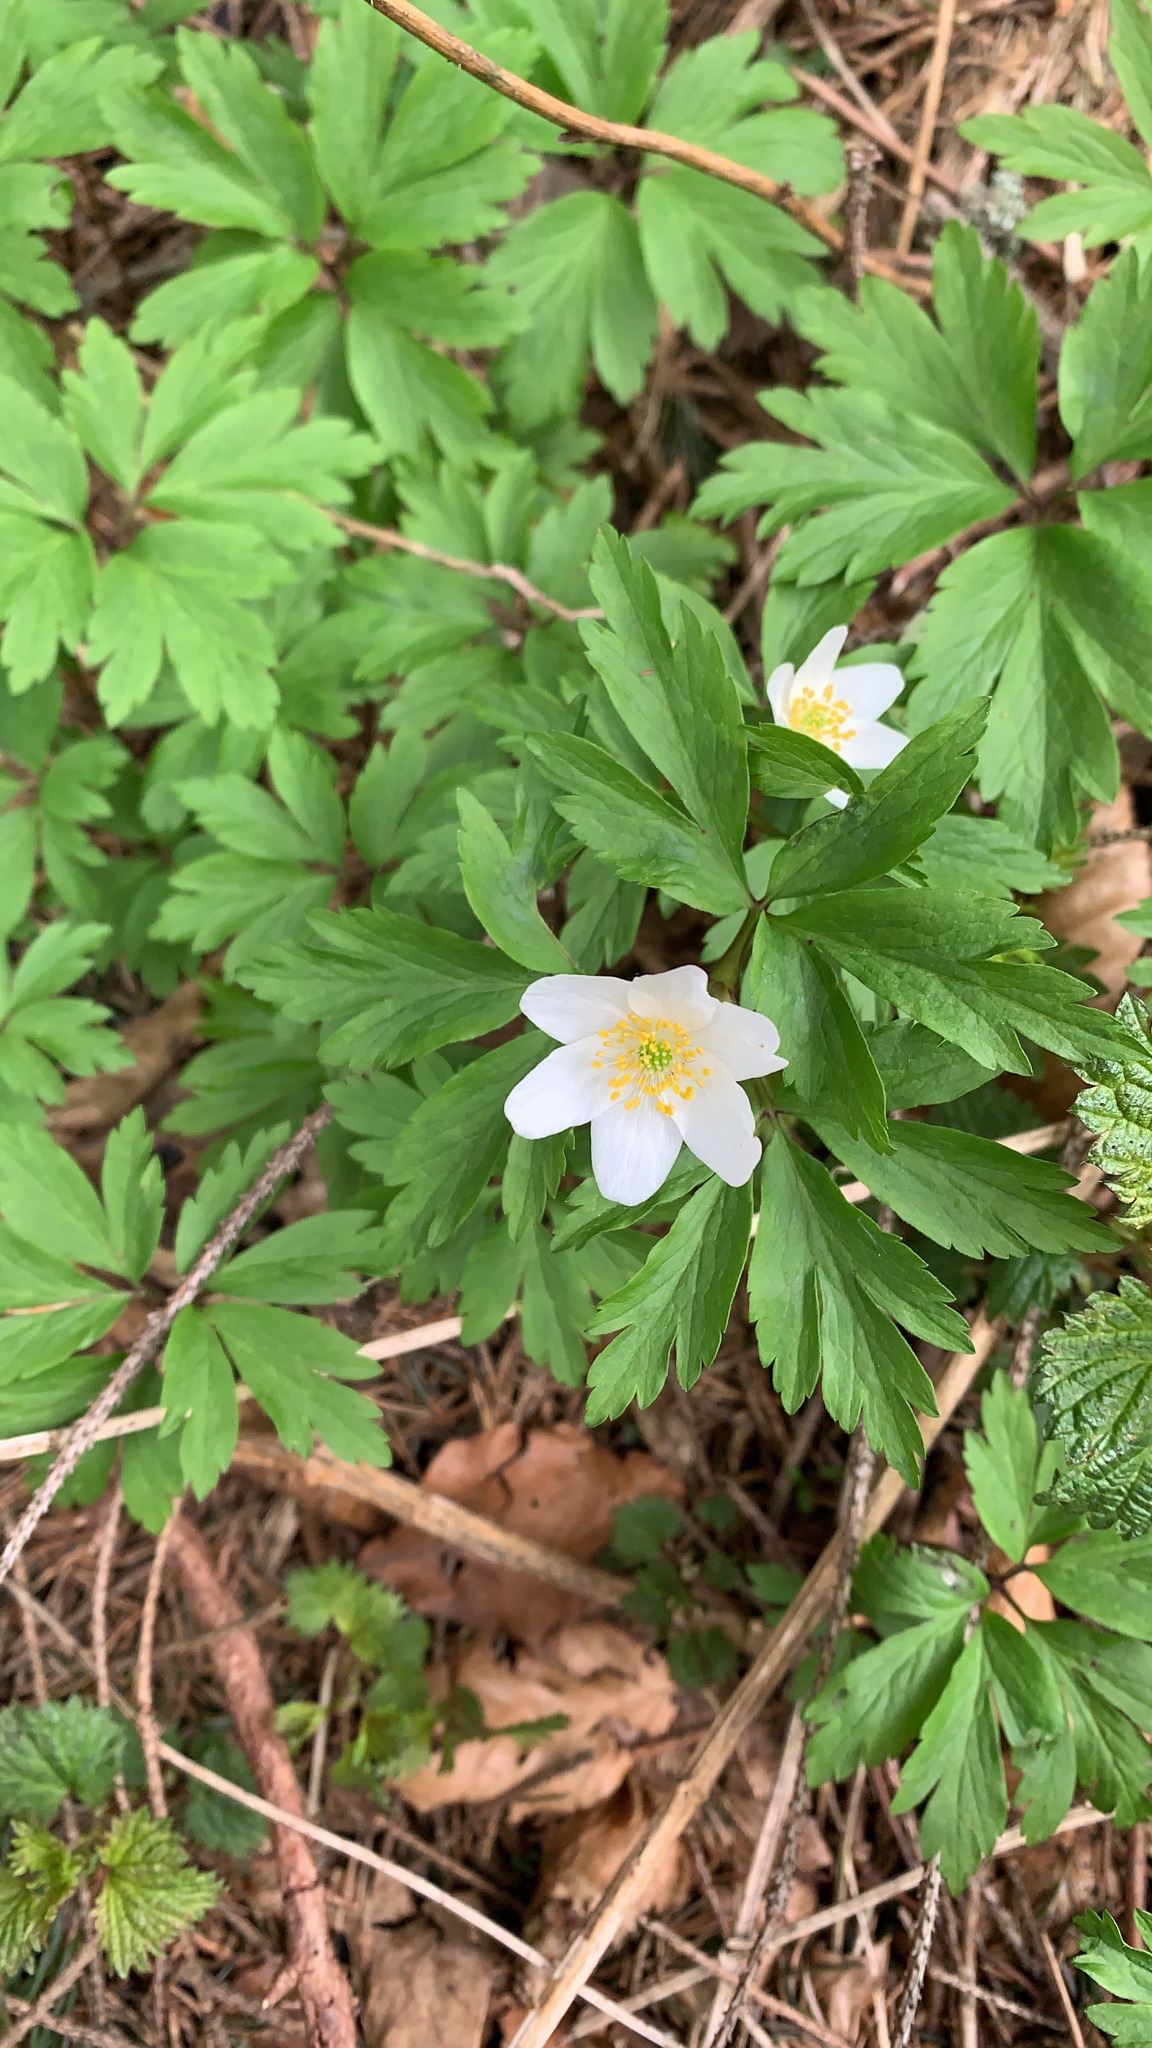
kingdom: Plantae
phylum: Tracheophyta
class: Magnoliopsida
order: Ranunculales
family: Ranunculaceae
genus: Anemone
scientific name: Anemone nemorosa
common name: Wood anemone
